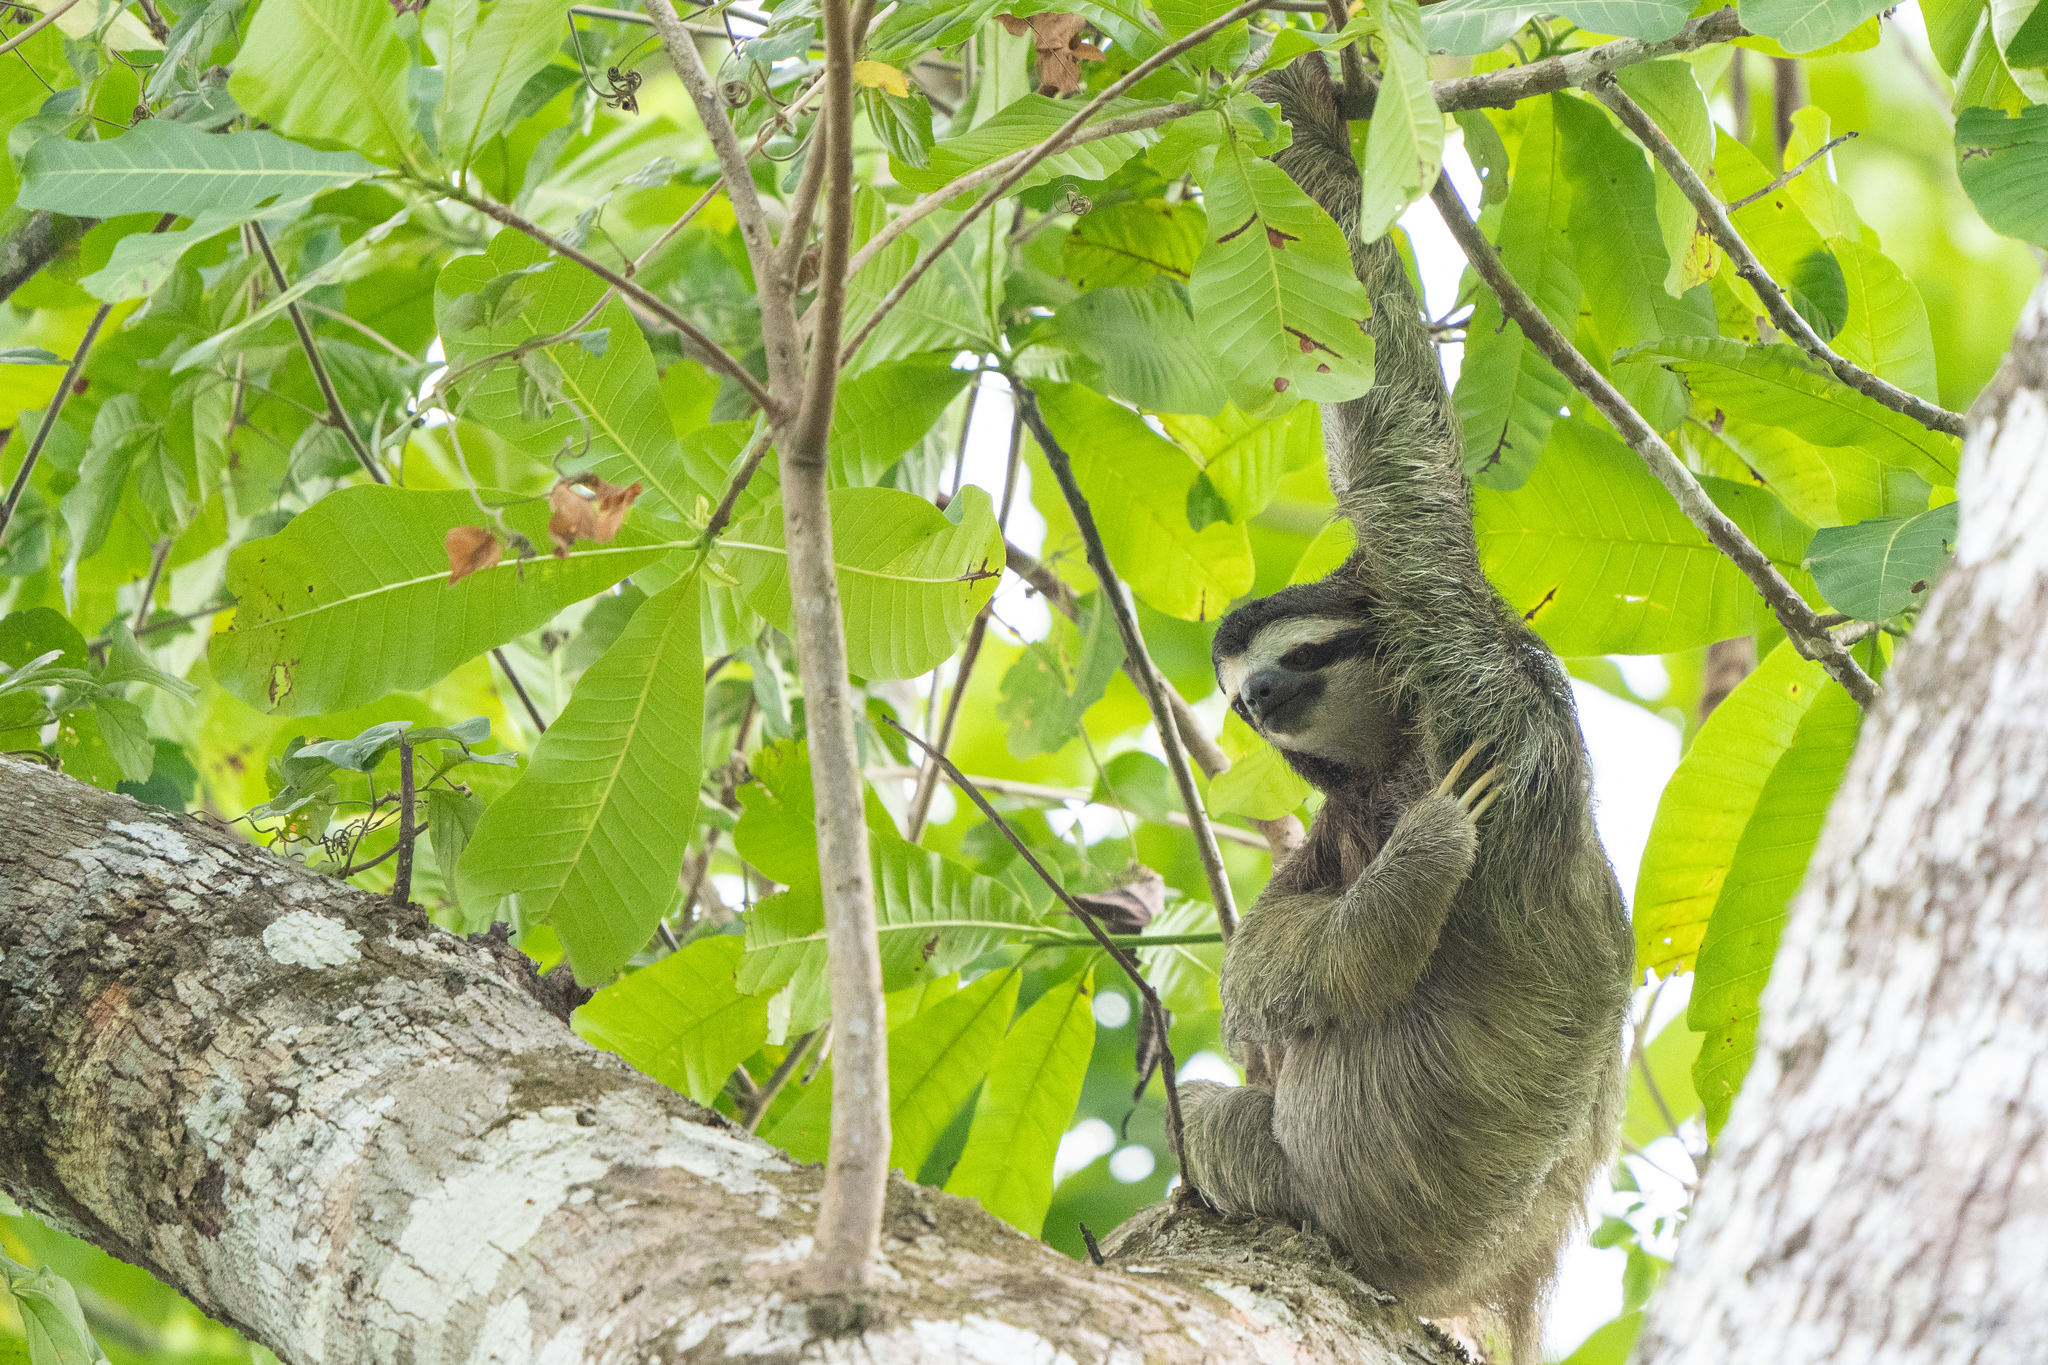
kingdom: Animalia
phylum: Chordata
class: Mammalia
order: Pilosa
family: Bradypodidae
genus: Bradypus
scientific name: Bradypus variegatus
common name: Brown-throated three-toed sloth
